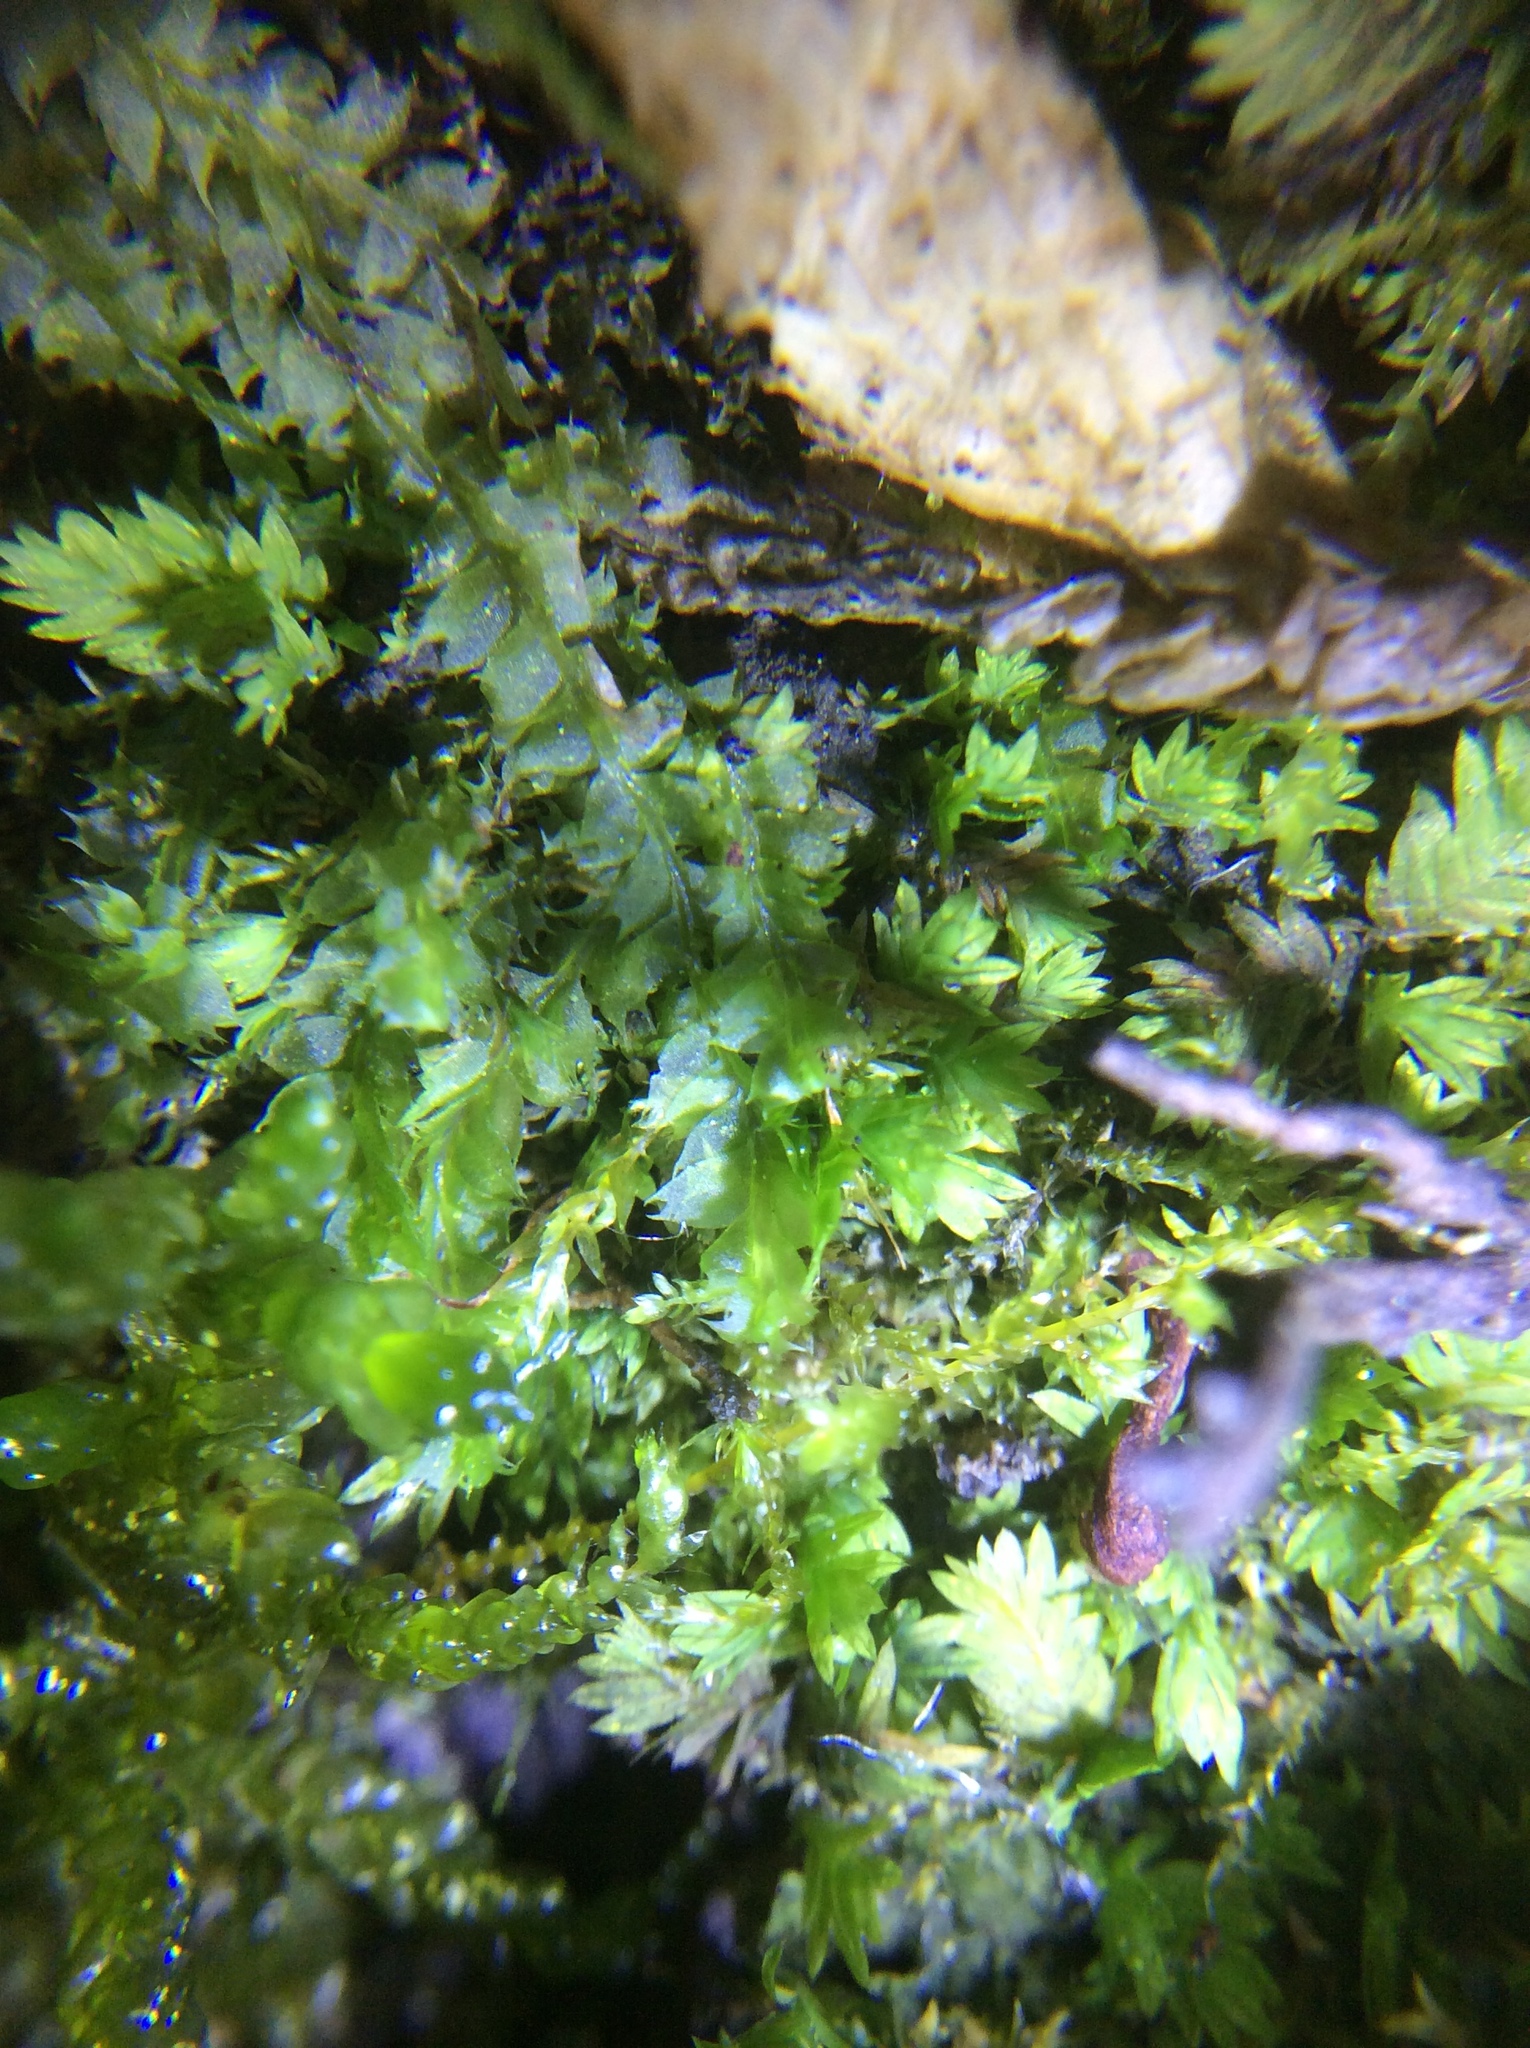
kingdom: Plantae
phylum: Bryophyta
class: Bryopsida
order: Dicranales
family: Fissidentaceae
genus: Fissidens
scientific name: Fissidens taxifolius
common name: Yew-leaved pocket moss
